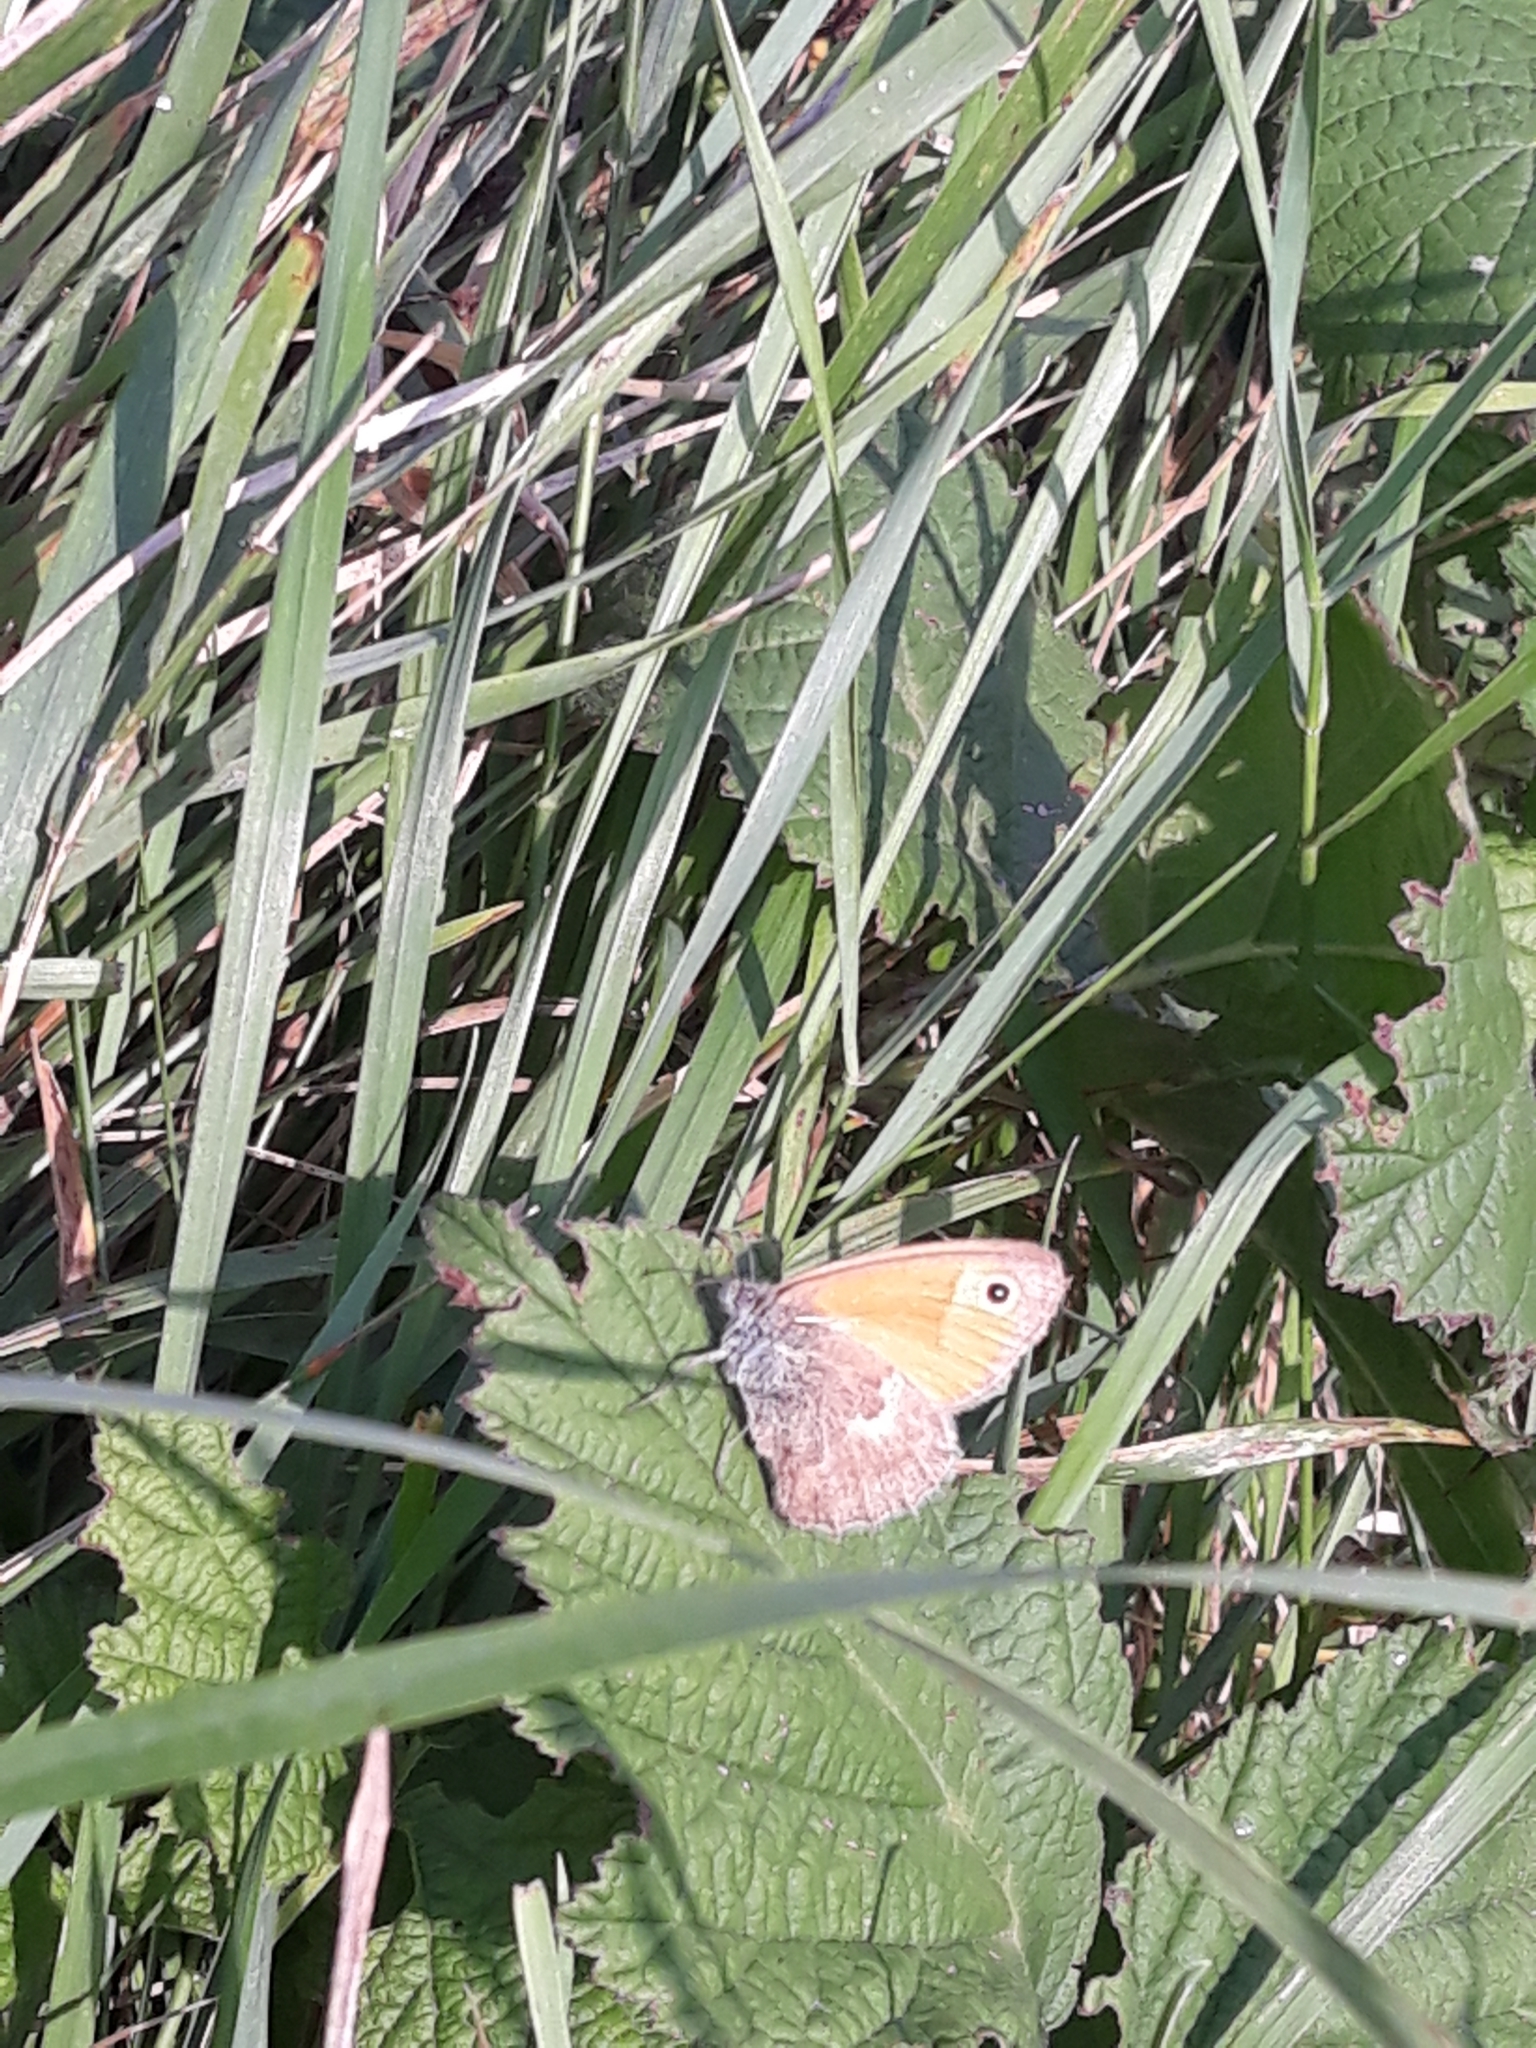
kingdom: Animalia
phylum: Arthropoda
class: Insecta
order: Lepidoptera
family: Nymphalidae
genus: Coenonympha
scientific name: Coenonympha pamphilus
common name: Small heath
